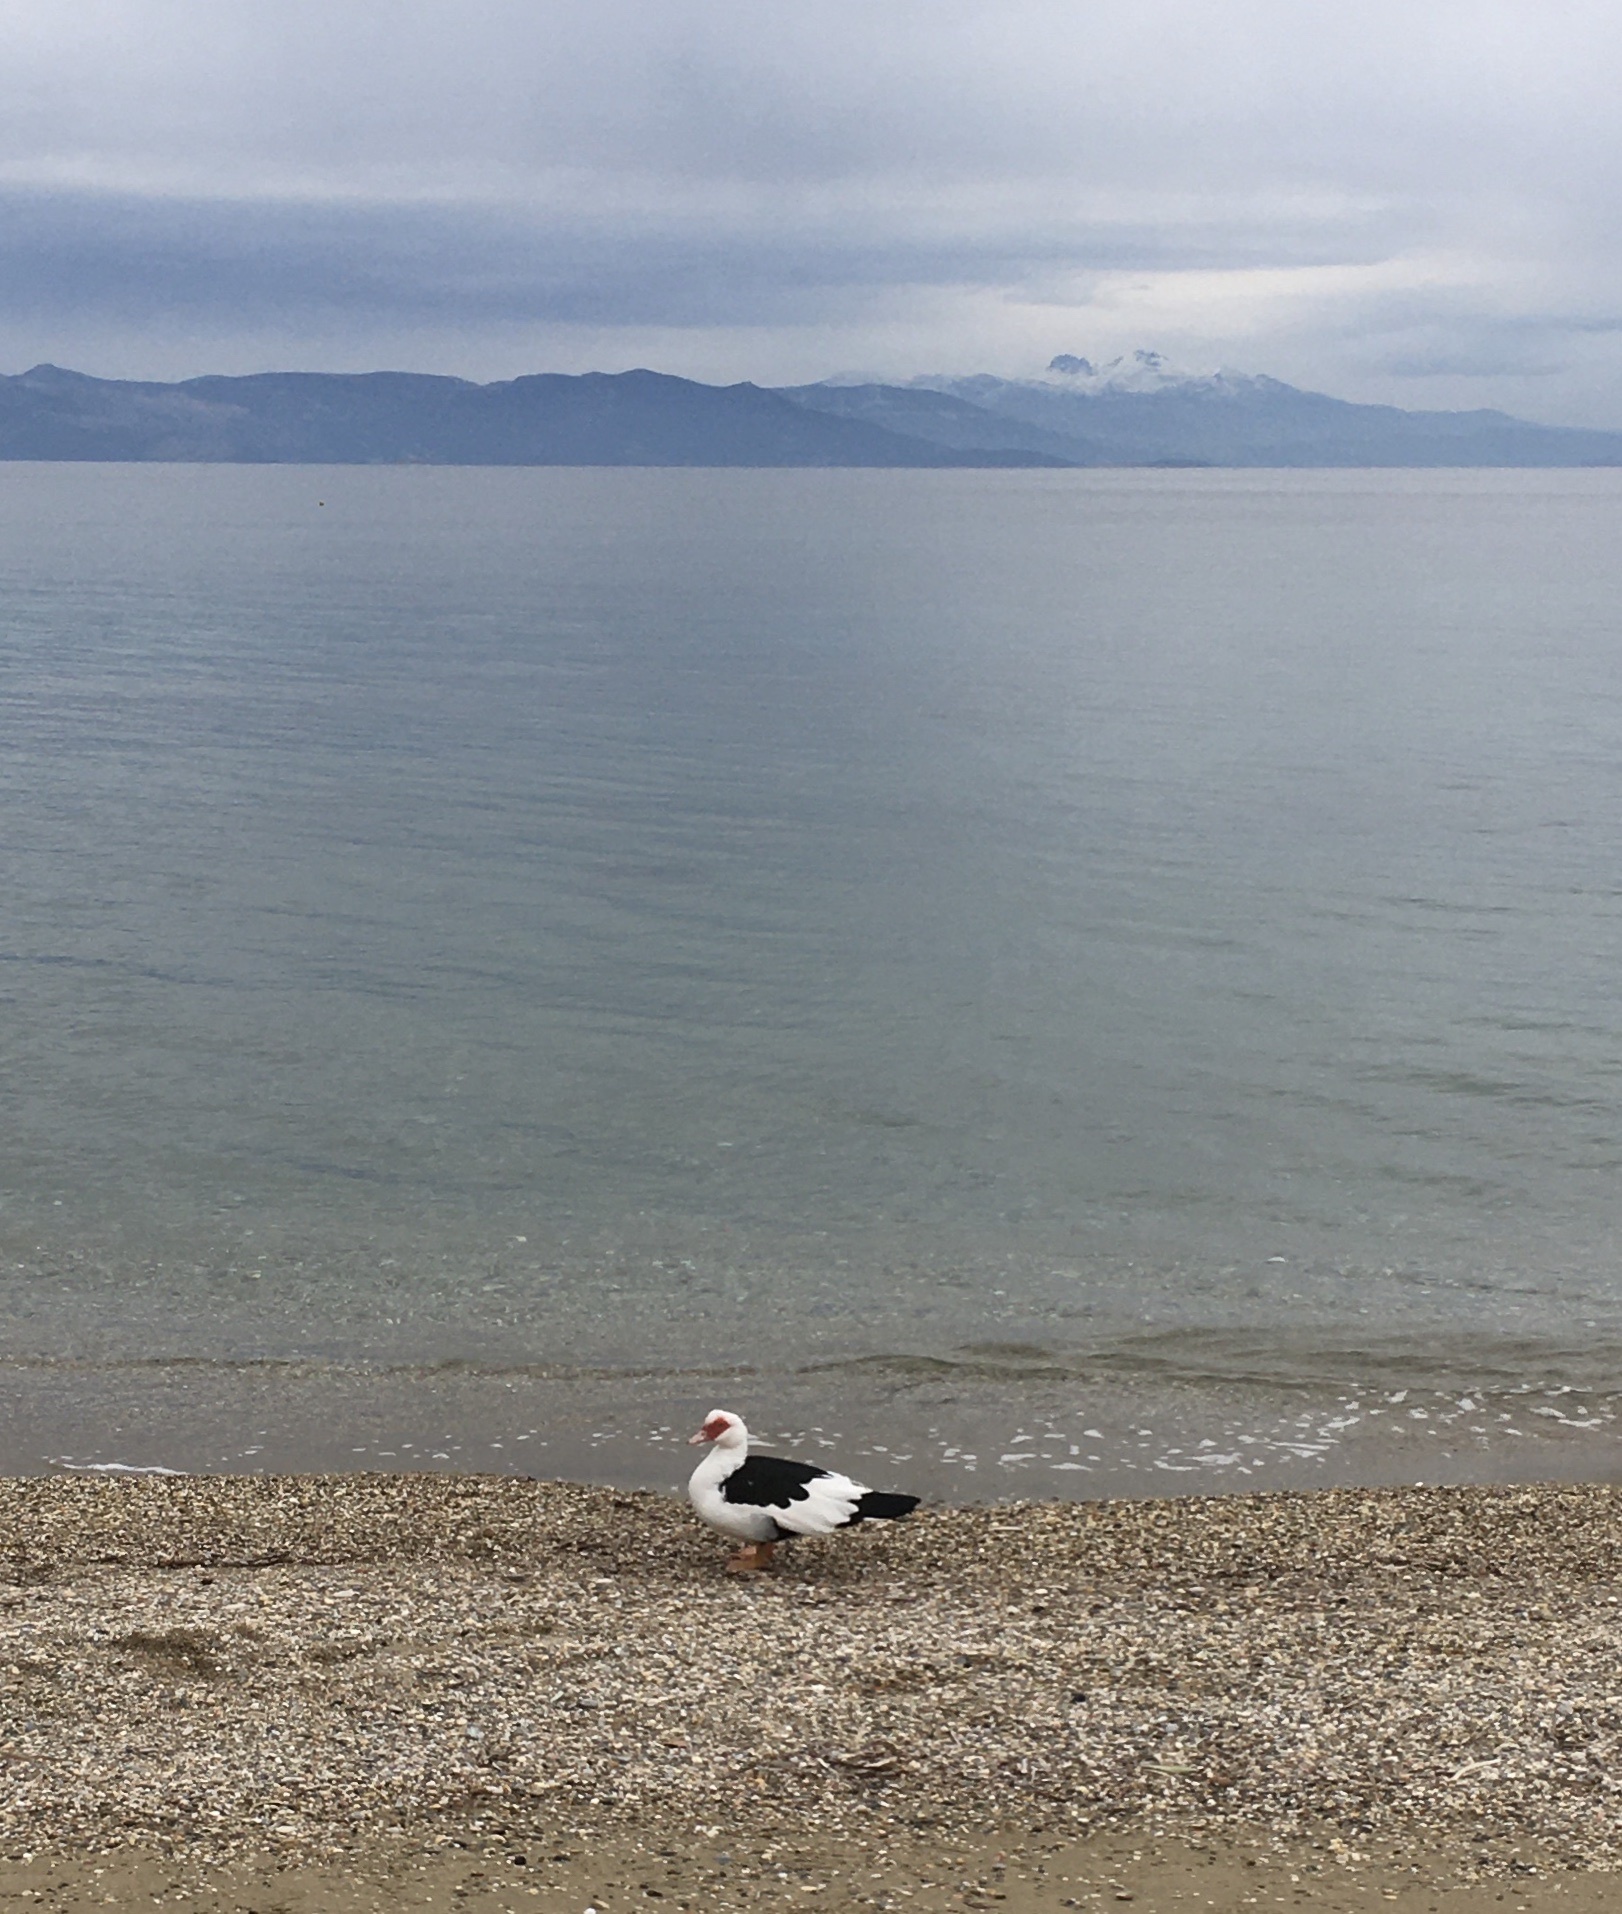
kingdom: Animalia
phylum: Chordata
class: Aves
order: Anseriformes
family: Anatidae
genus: Cairina
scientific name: Cairina moschata
